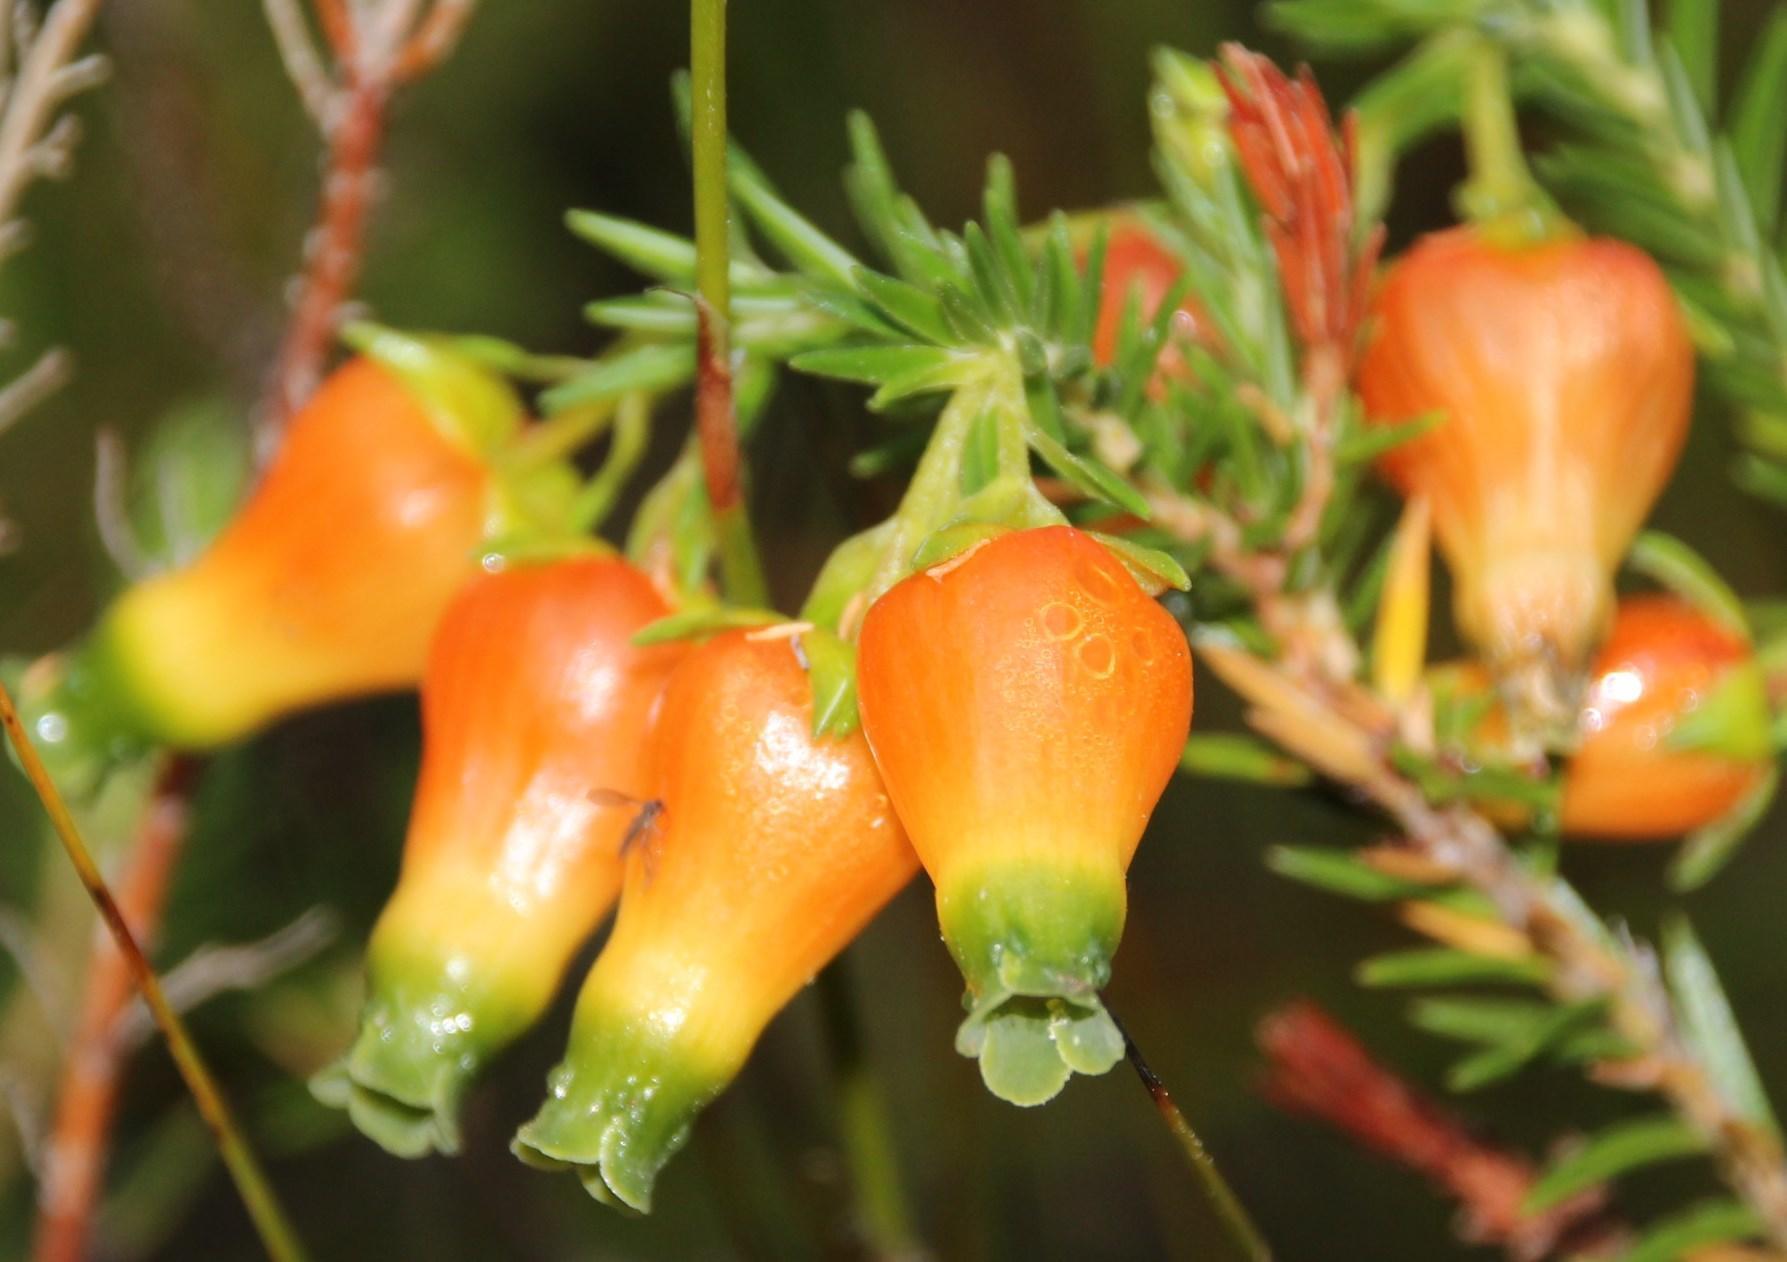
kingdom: Plantae
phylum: Tracheophyta
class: Magnoliopsida
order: Ericales
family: Ericaceae
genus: Erica
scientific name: Erica blenna
